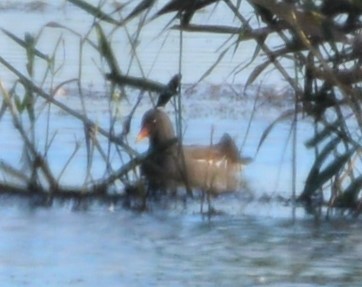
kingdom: Animalia
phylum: Chordata
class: Aves
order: Gruiformes
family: Rallidae
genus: Gallinula
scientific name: Gallinula chloropus
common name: Common moorhen
